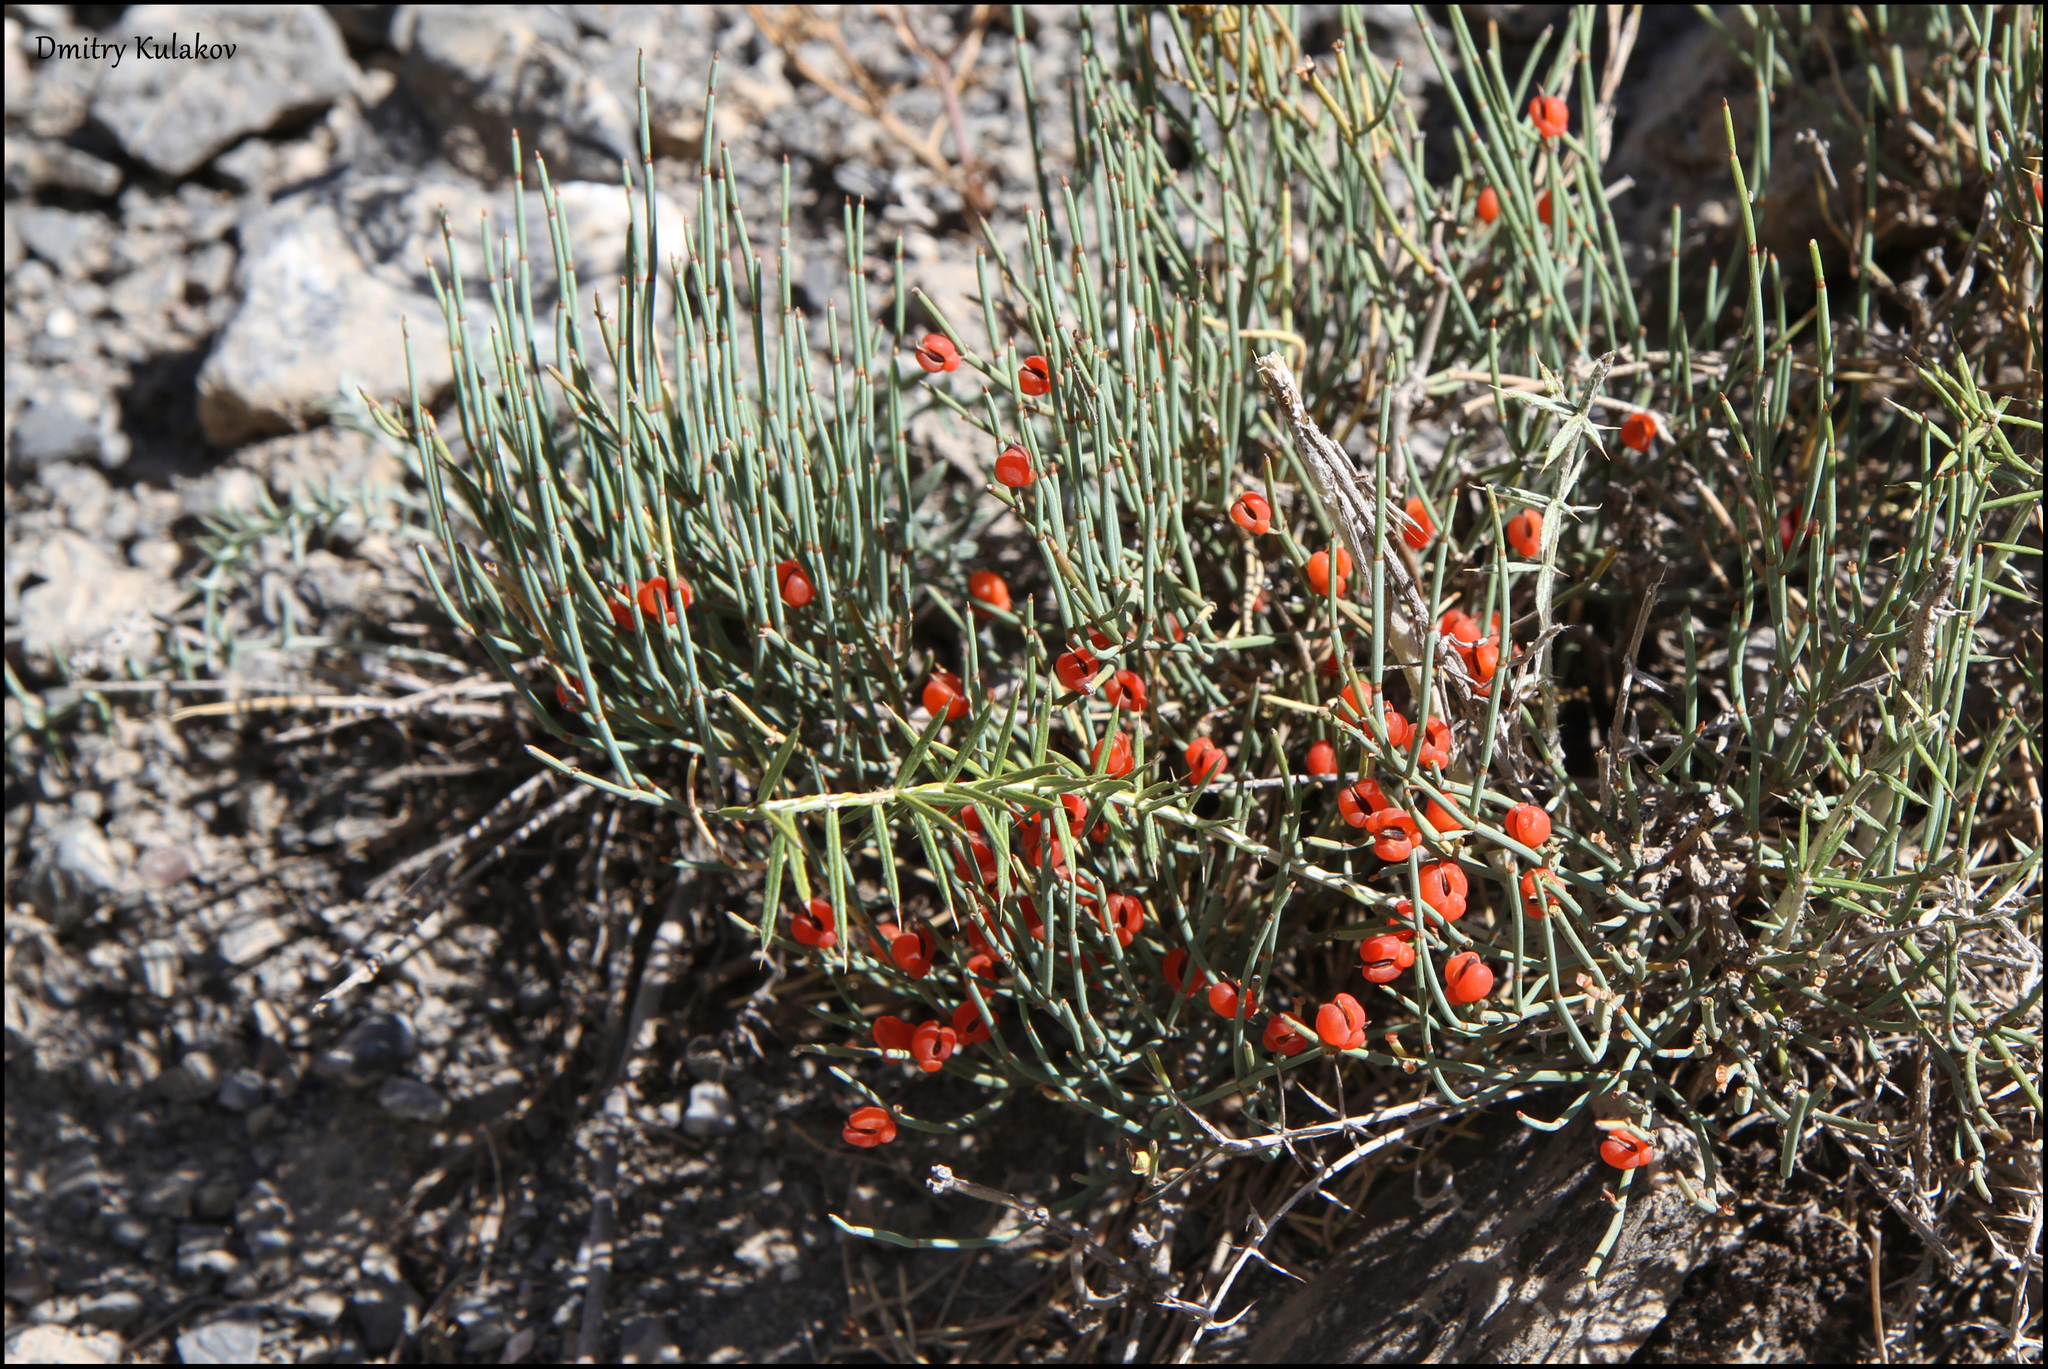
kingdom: Plantae
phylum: Tracheophyta
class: Gnetopsida
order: Ephedrales
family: Ephedraceae
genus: Ephedra
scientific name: Ephedra intermedia
